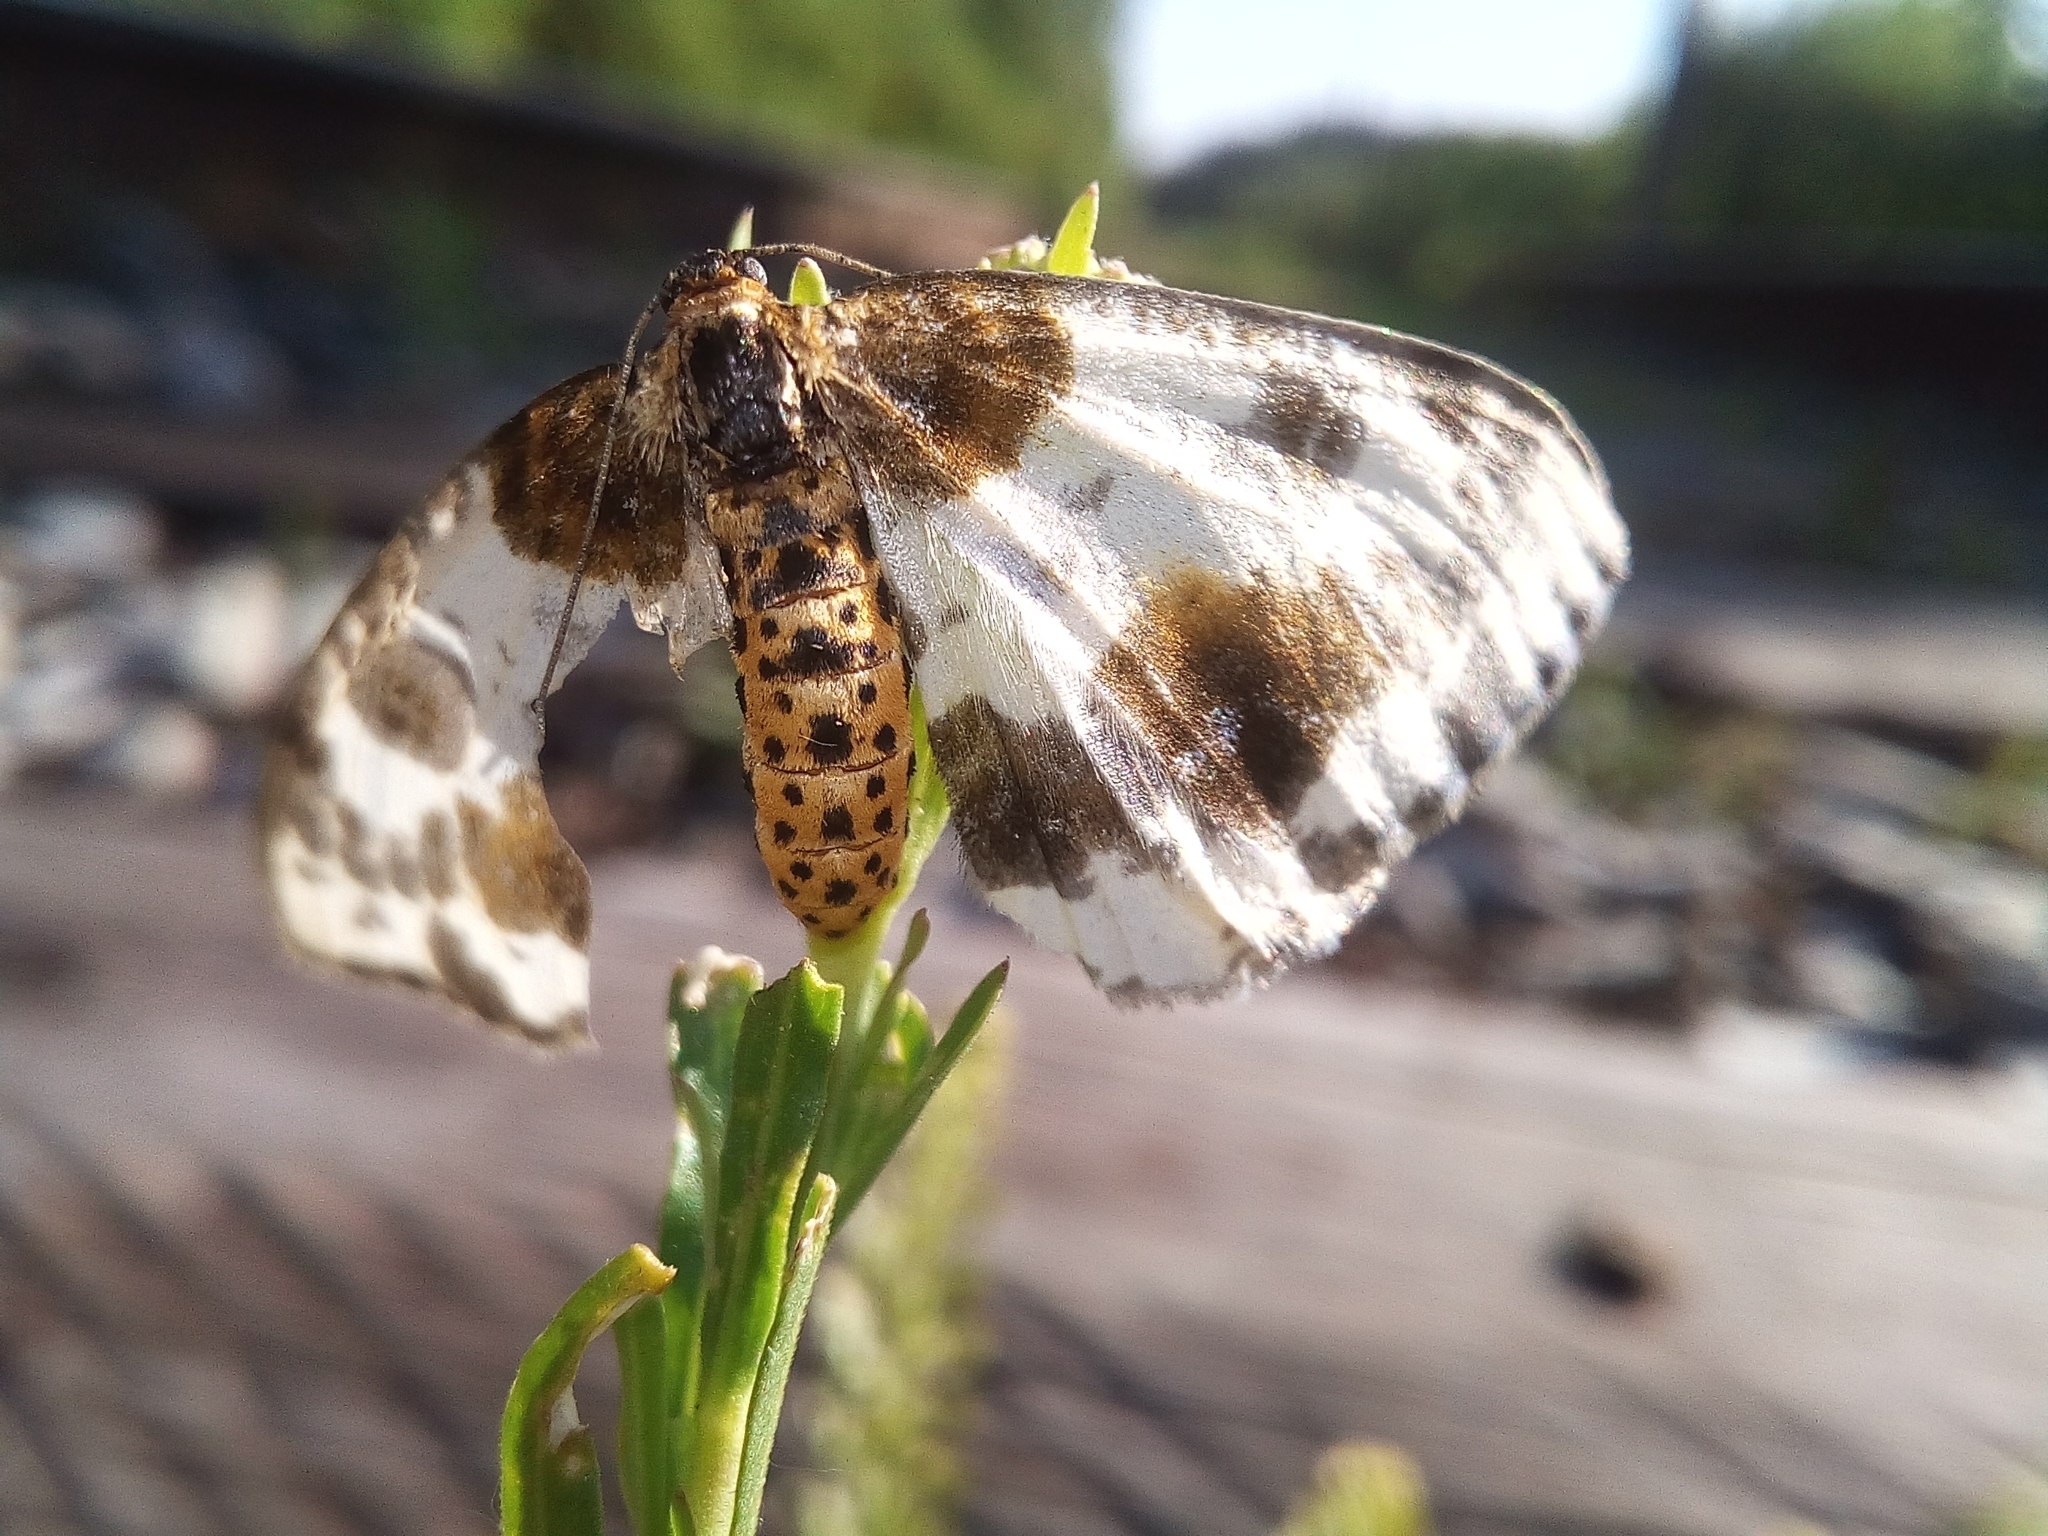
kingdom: Animalia
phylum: Arthropoda
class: Insecta
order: Lepidoptera
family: Geometridae
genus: Abraxas
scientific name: Abraxas sylvata
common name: Clouded magpie
